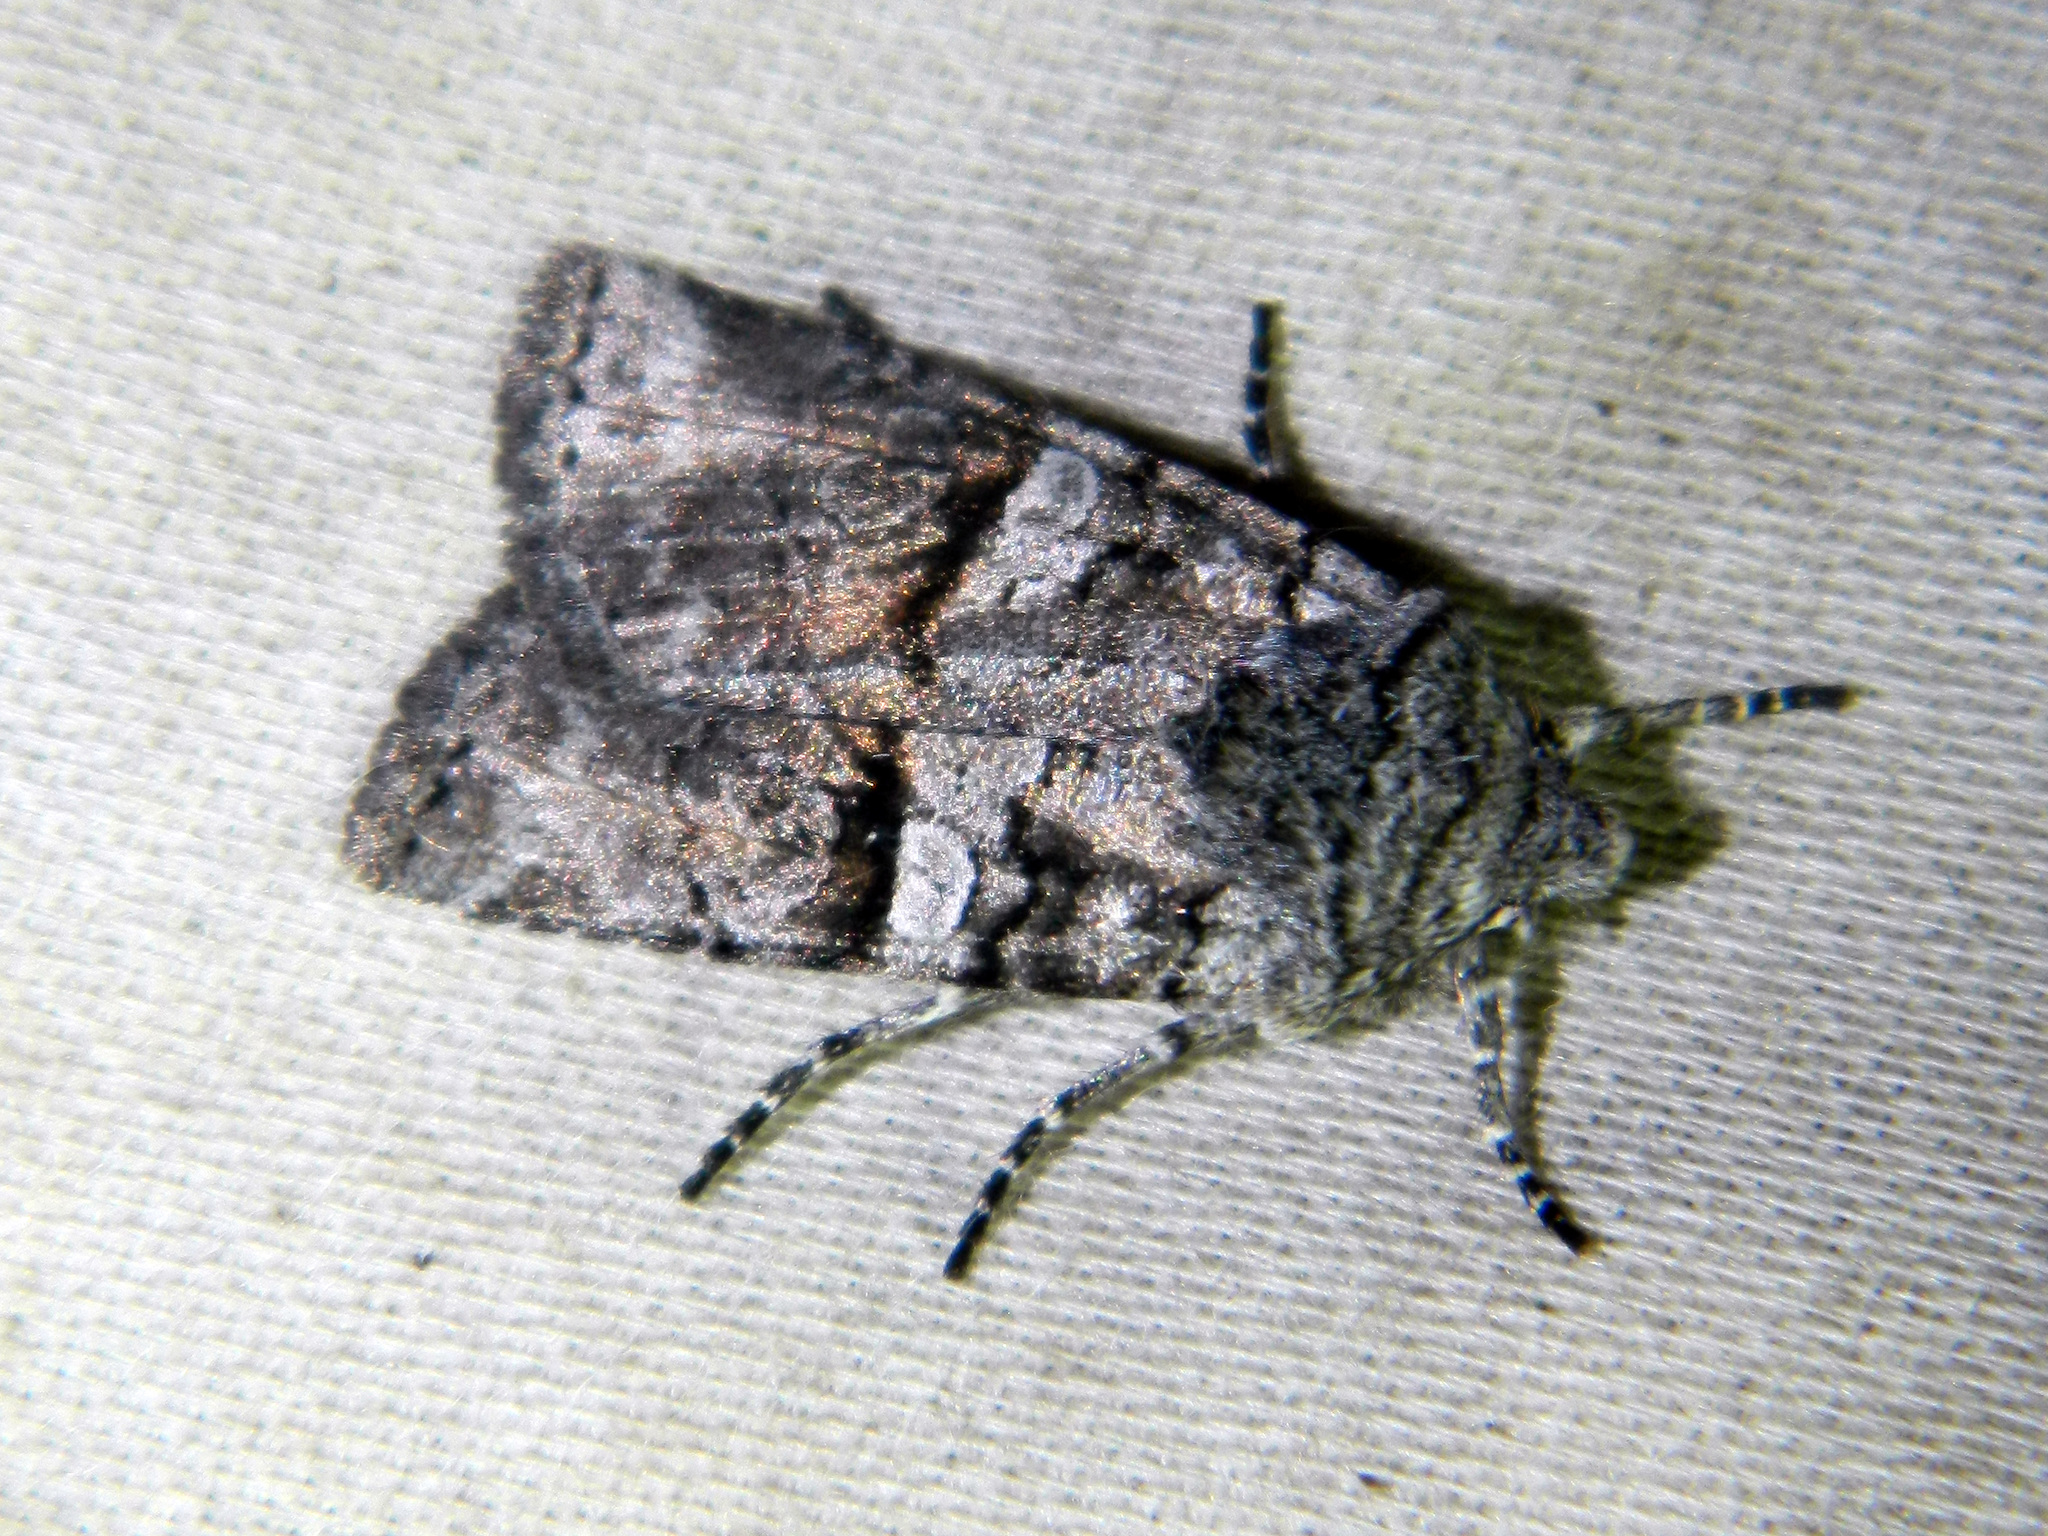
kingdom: Animalia
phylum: Arthropoda
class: Insecta
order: Lepidoptera
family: Noctuidae
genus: Litholomia
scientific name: Litholomia napaea
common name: False pinion moth
